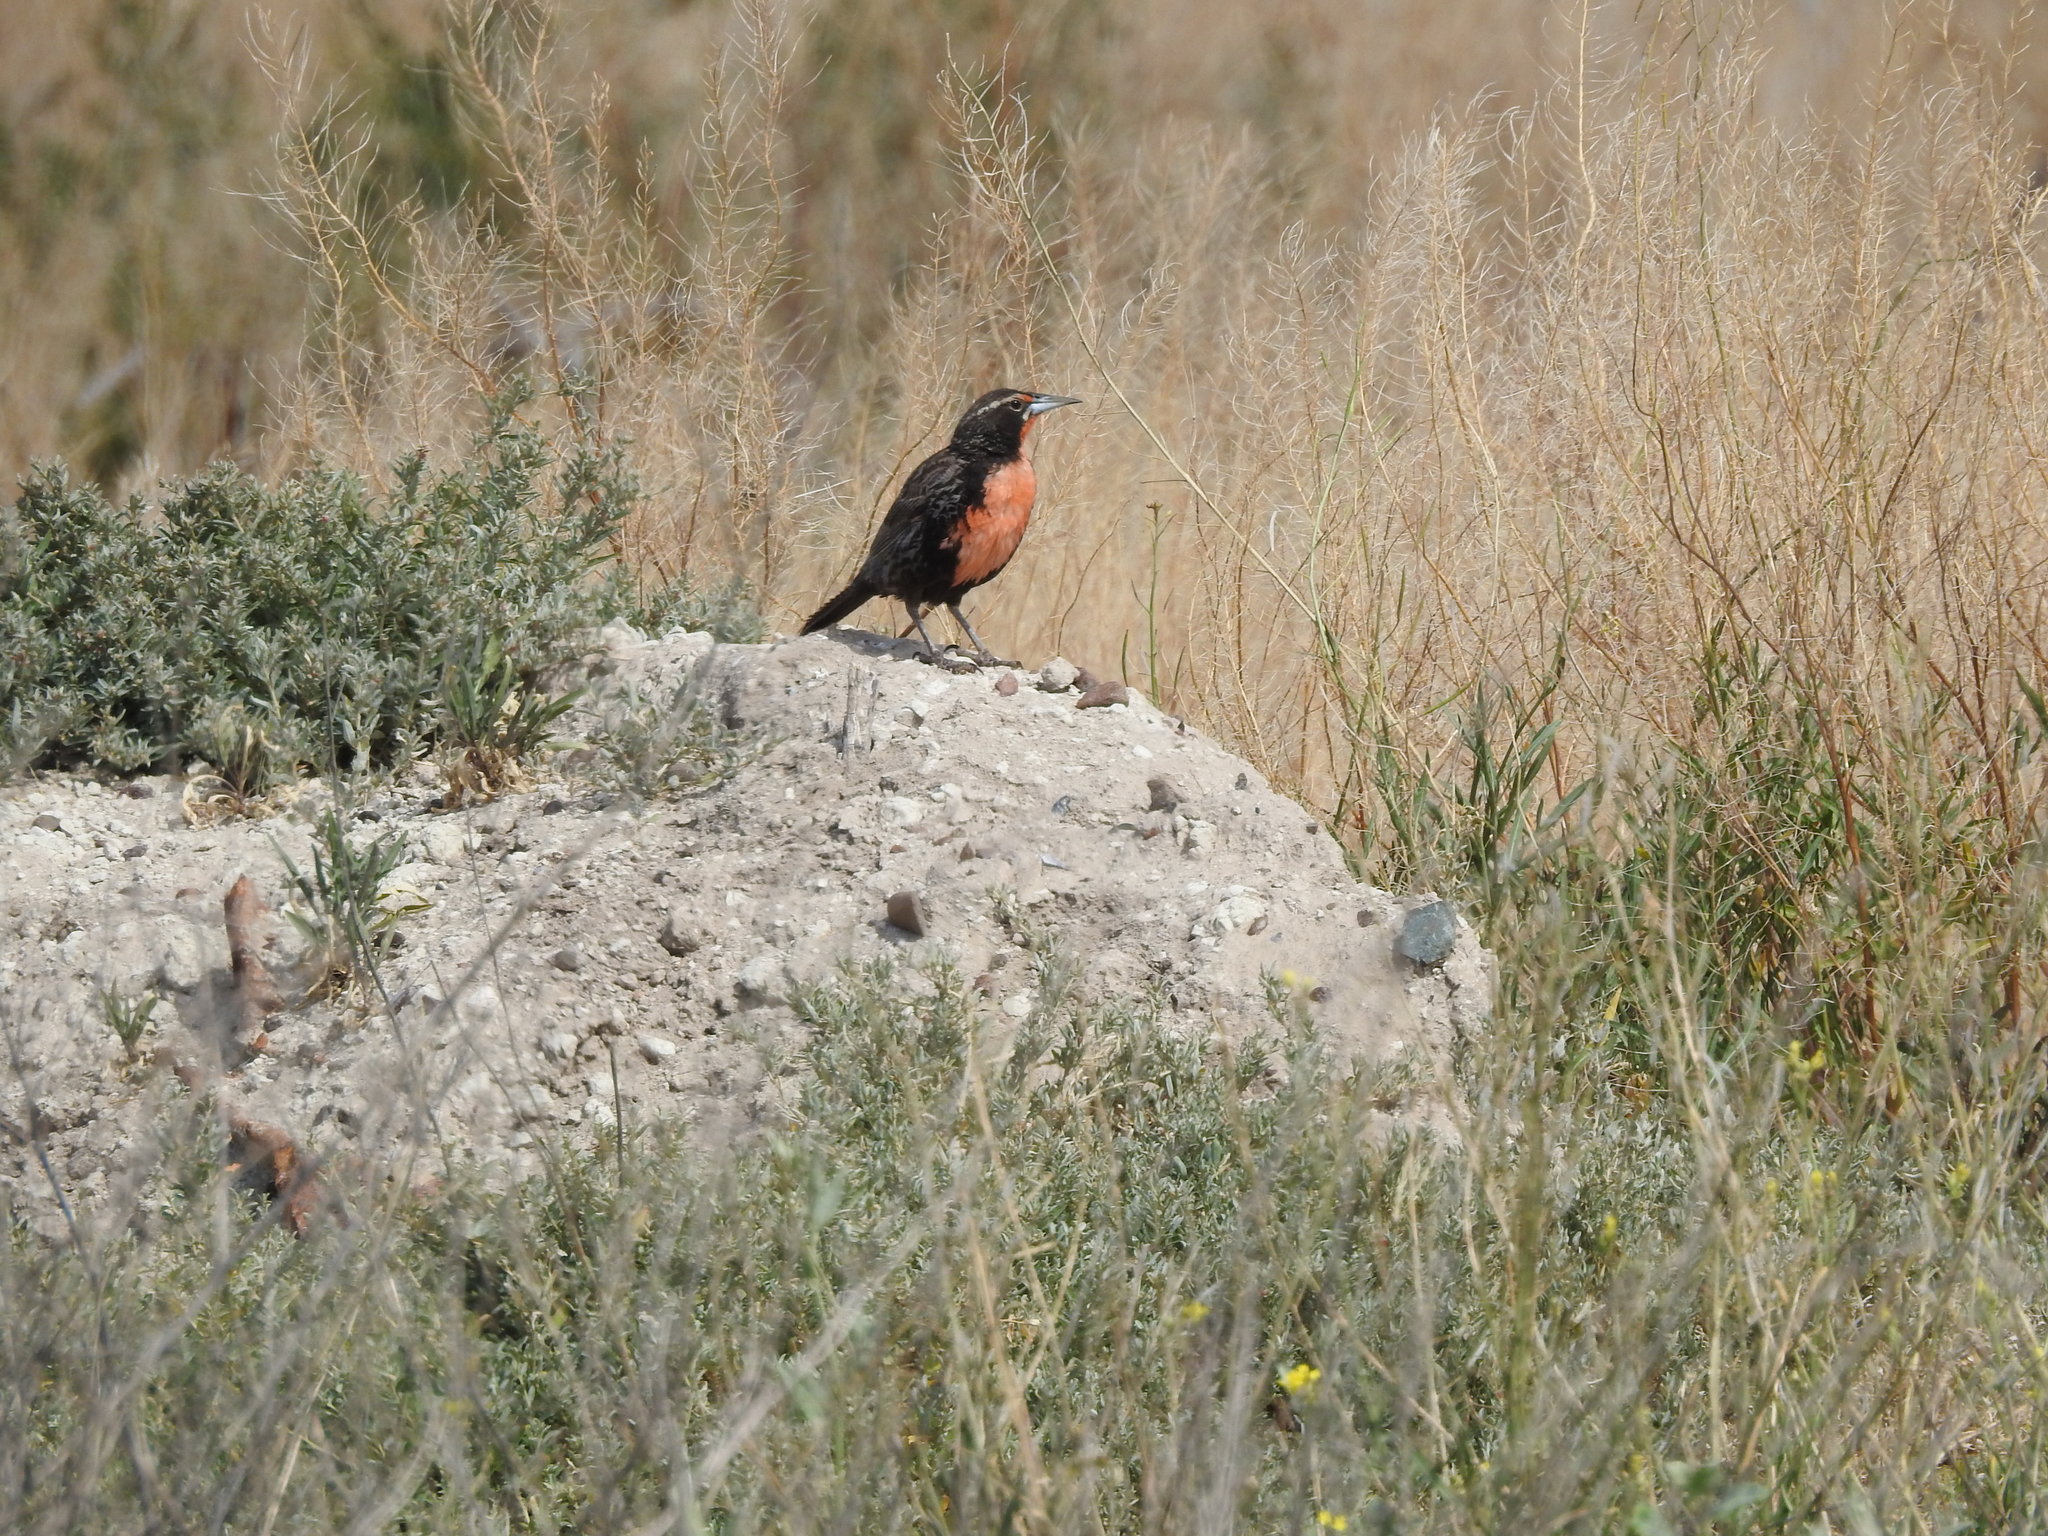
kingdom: Animalia
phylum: Chordata
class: Aves
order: Passeriformes
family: Icteridae
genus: Sturnella
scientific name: Sturnella loyca
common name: Long-tailed meadowlark
